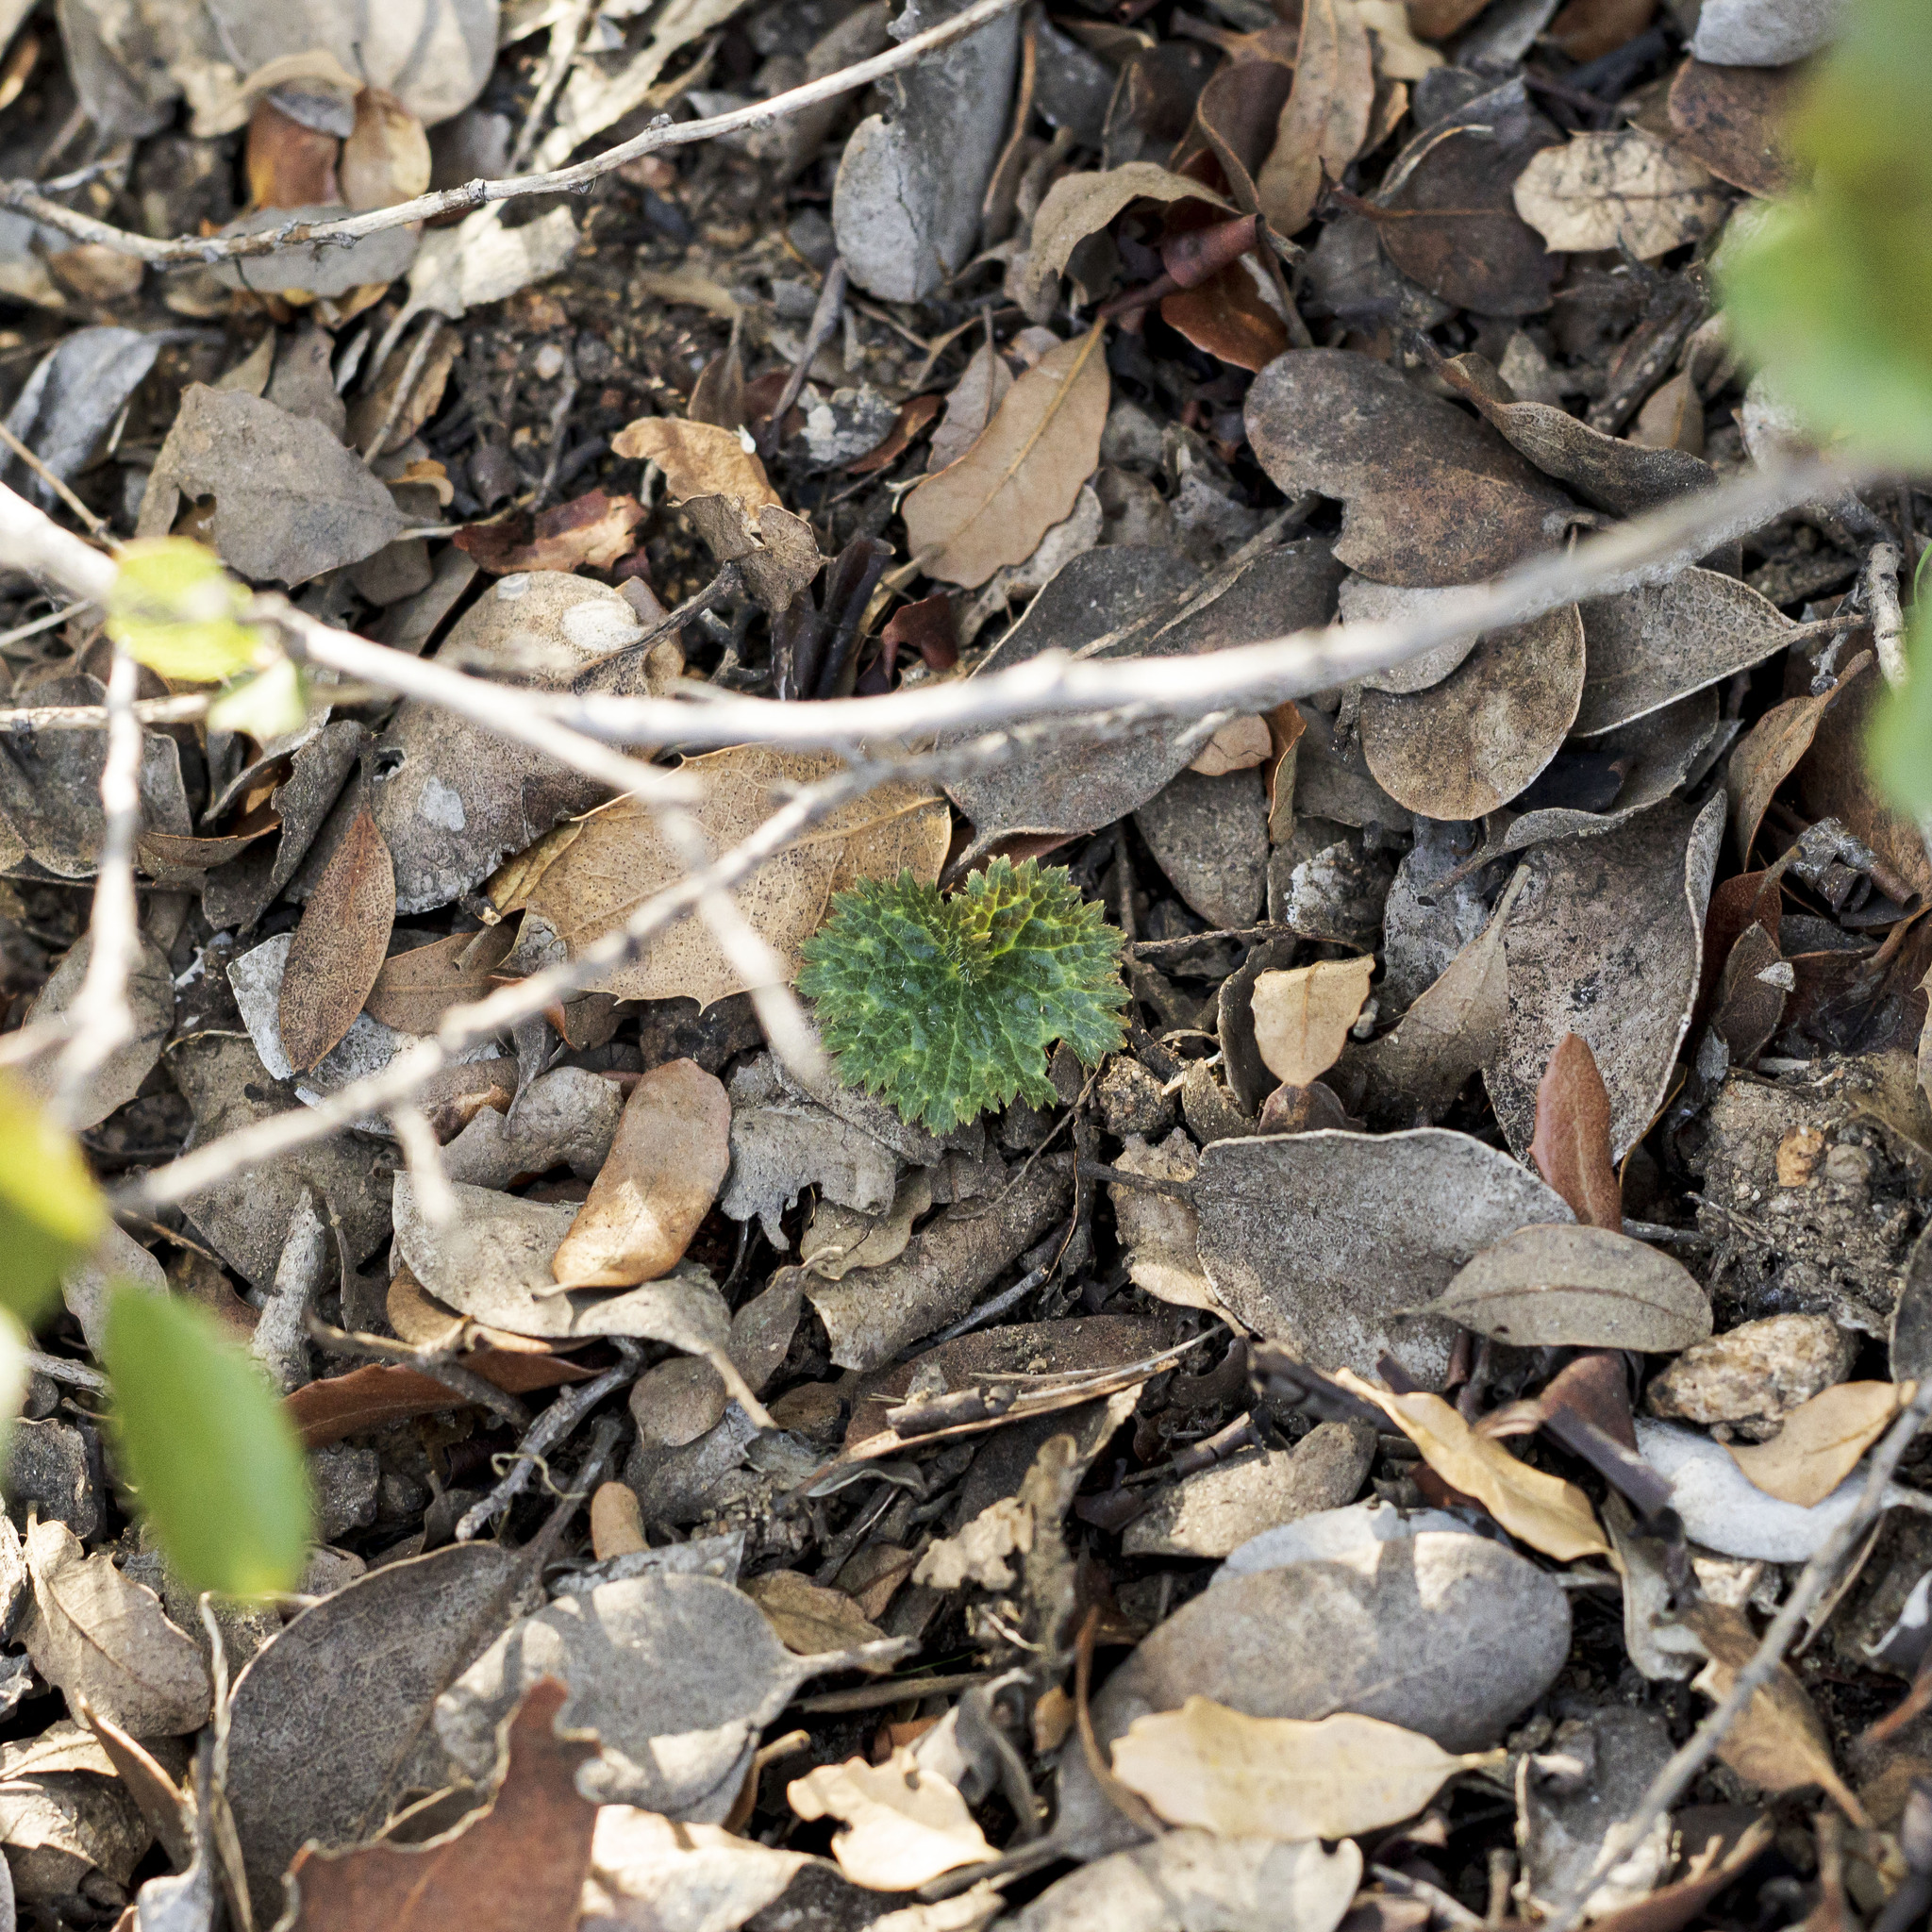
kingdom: Plantae
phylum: Tracheophyta
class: Magnoliopsida
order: Saxifragales
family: Saxifragaceae
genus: Jepsonia
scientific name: Jepsonia parryi
